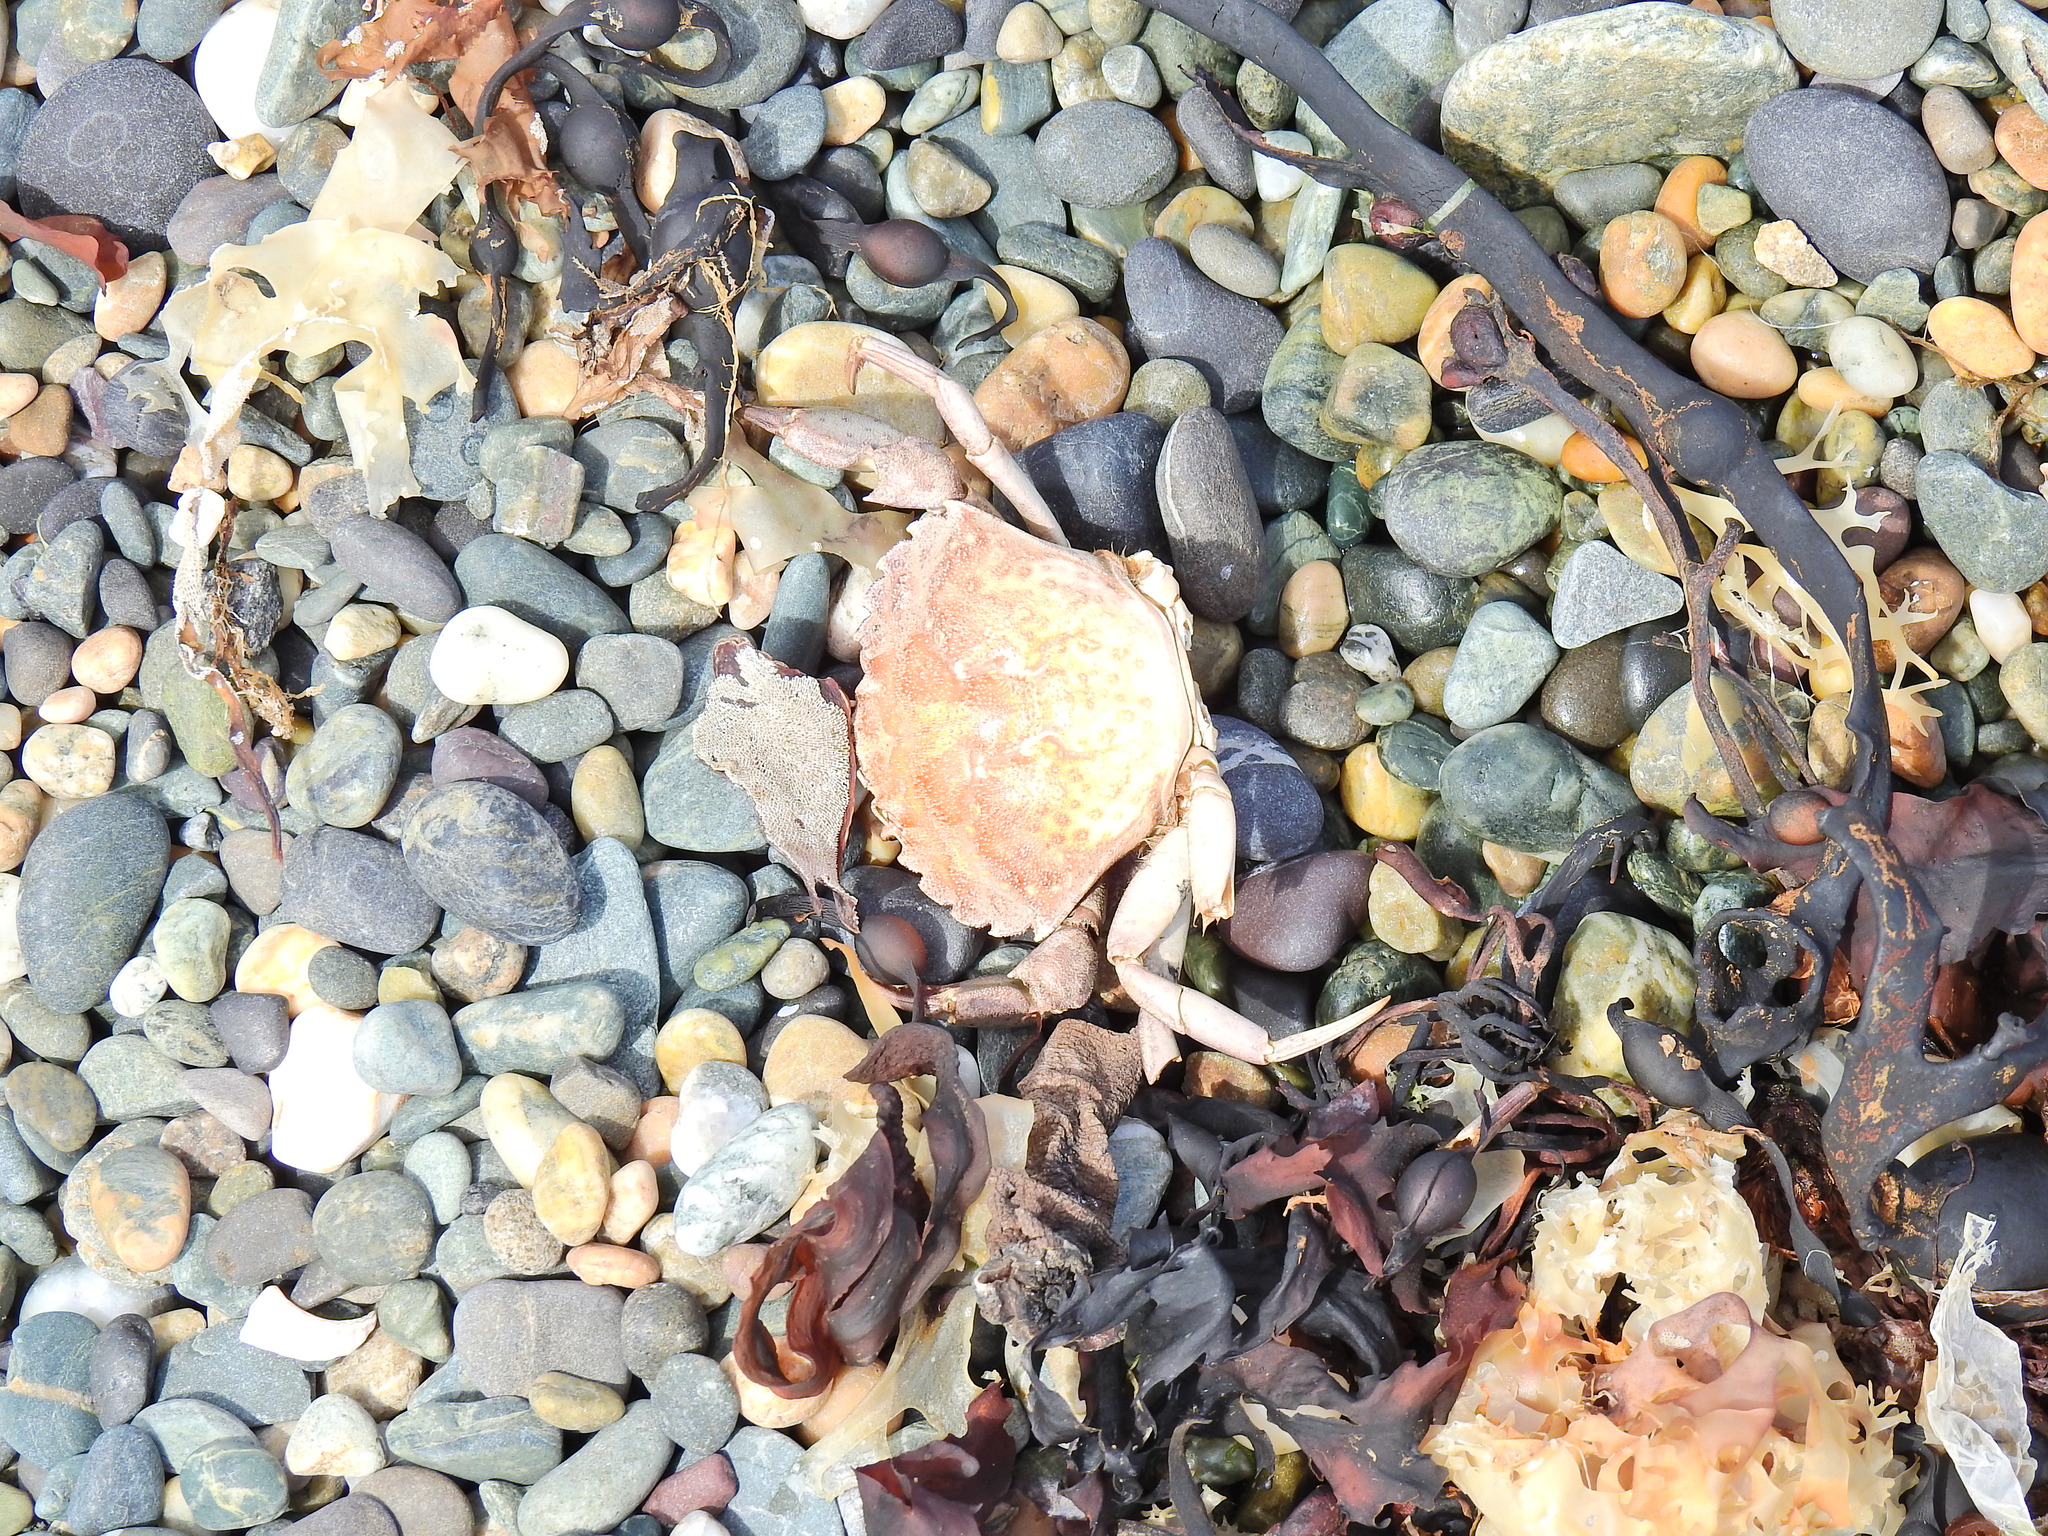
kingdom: Animalia
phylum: Arthropoda
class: Malacostraca
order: Decapoda
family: Carcinidae
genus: Carcinus
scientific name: Carcinus maenas
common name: European green crab
